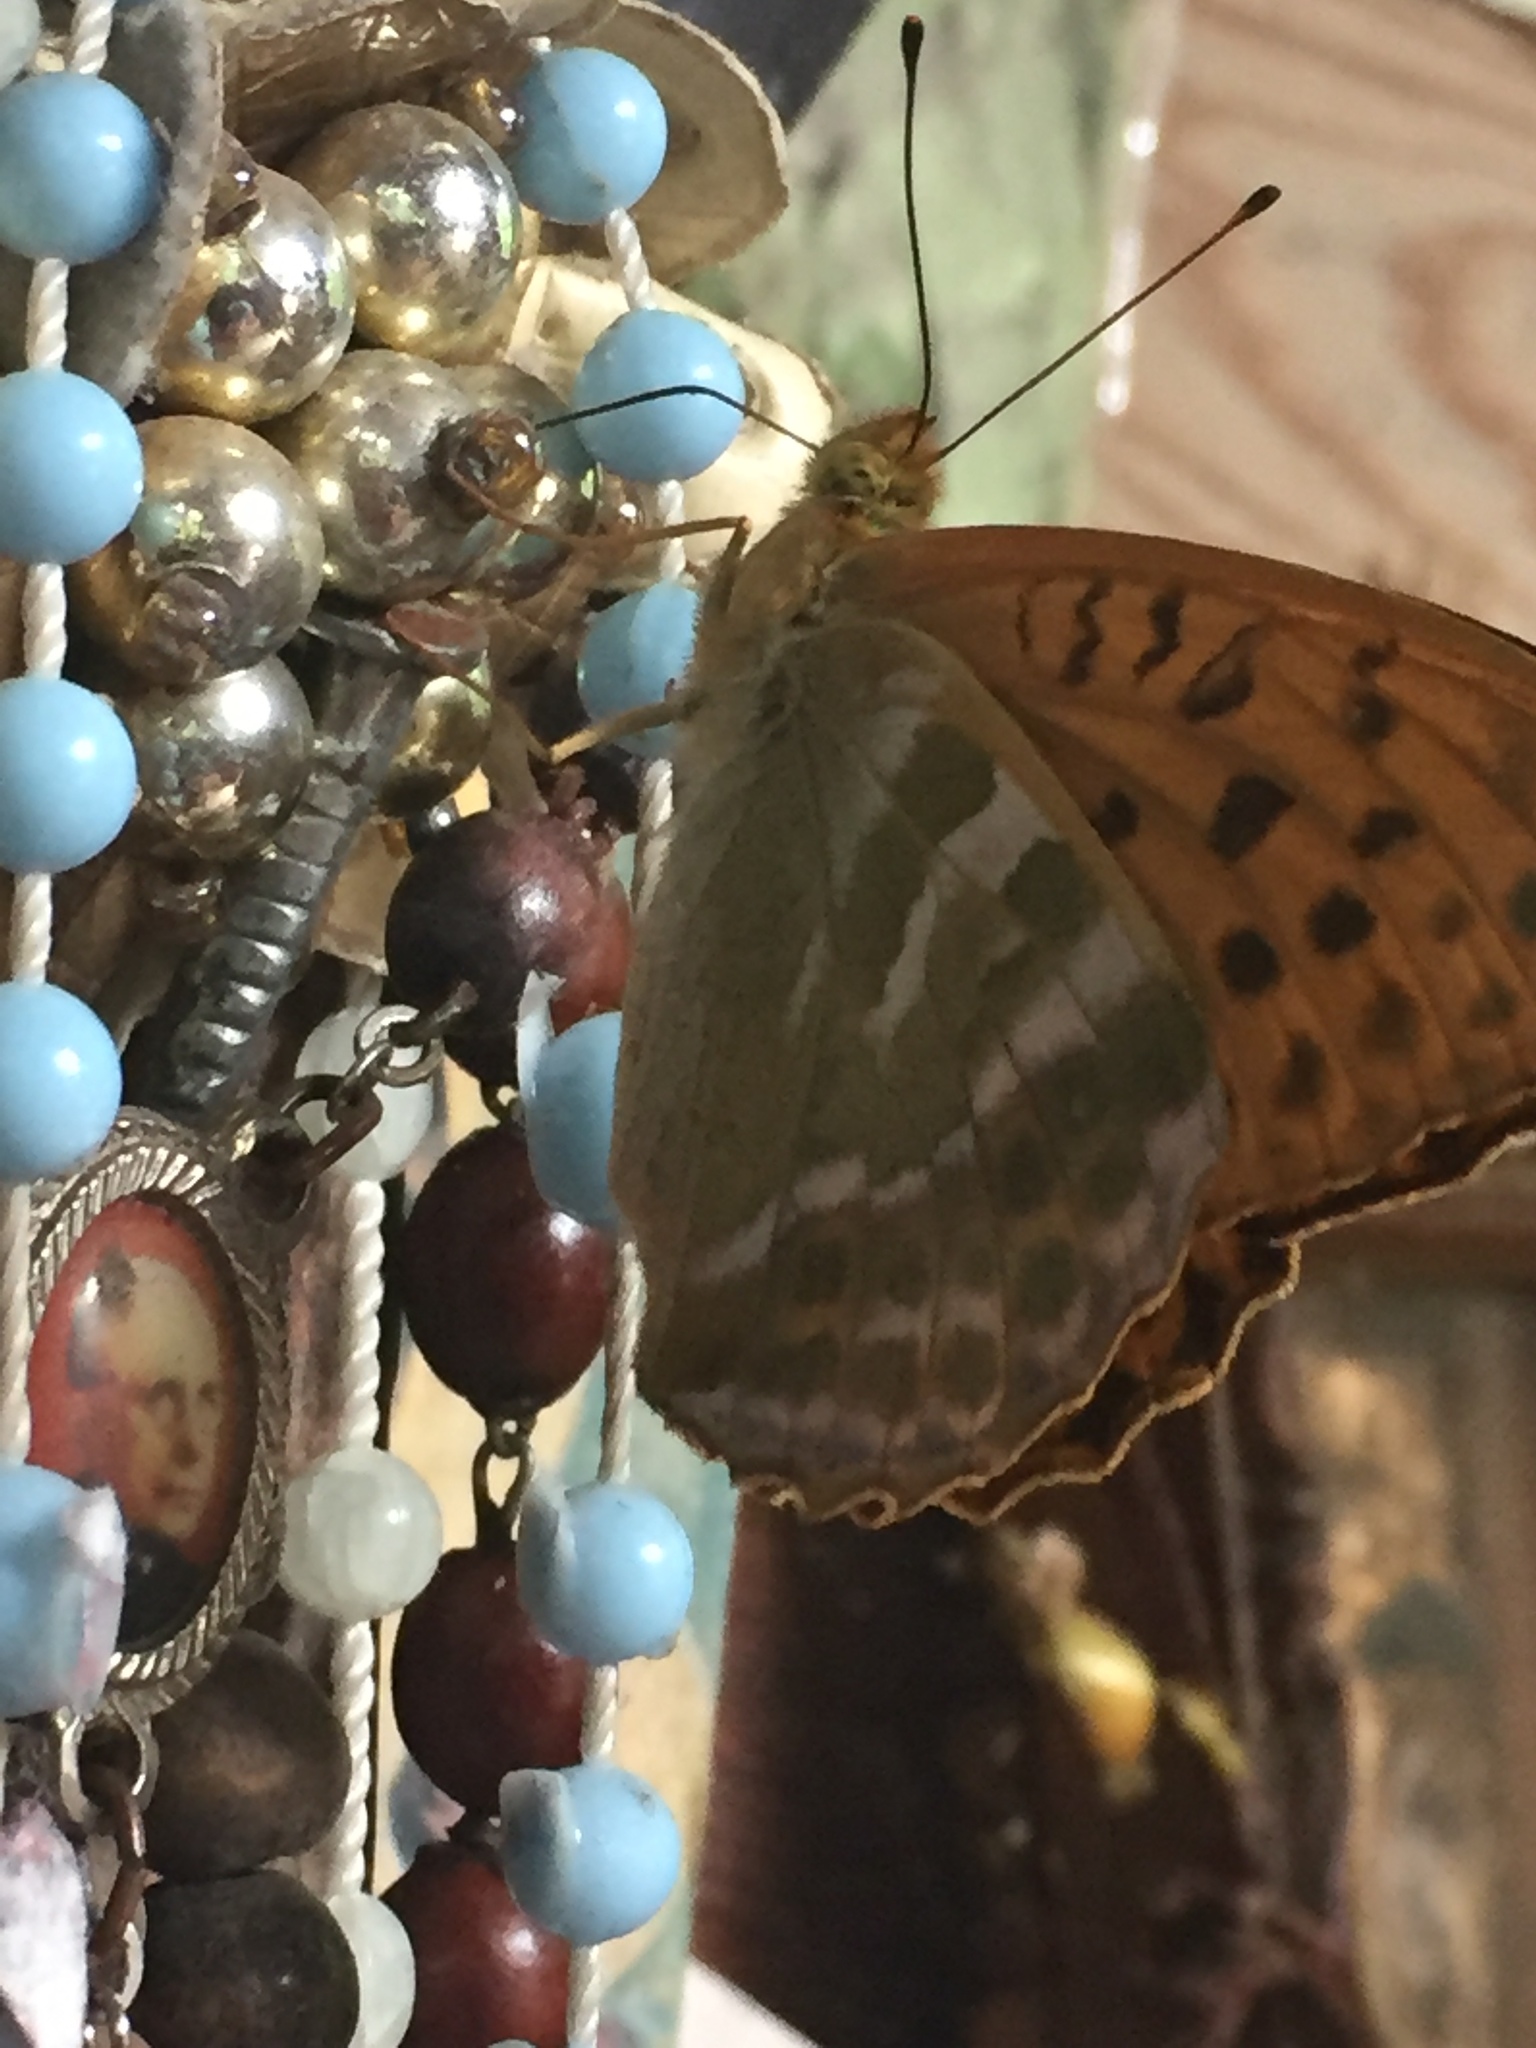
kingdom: Animalia
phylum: Arthropoda
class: Insecta
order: Lepidoptera
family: Nymphalidae
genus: Argynnis
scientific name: Argynnis paphia
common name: Silver-washed fritillary
